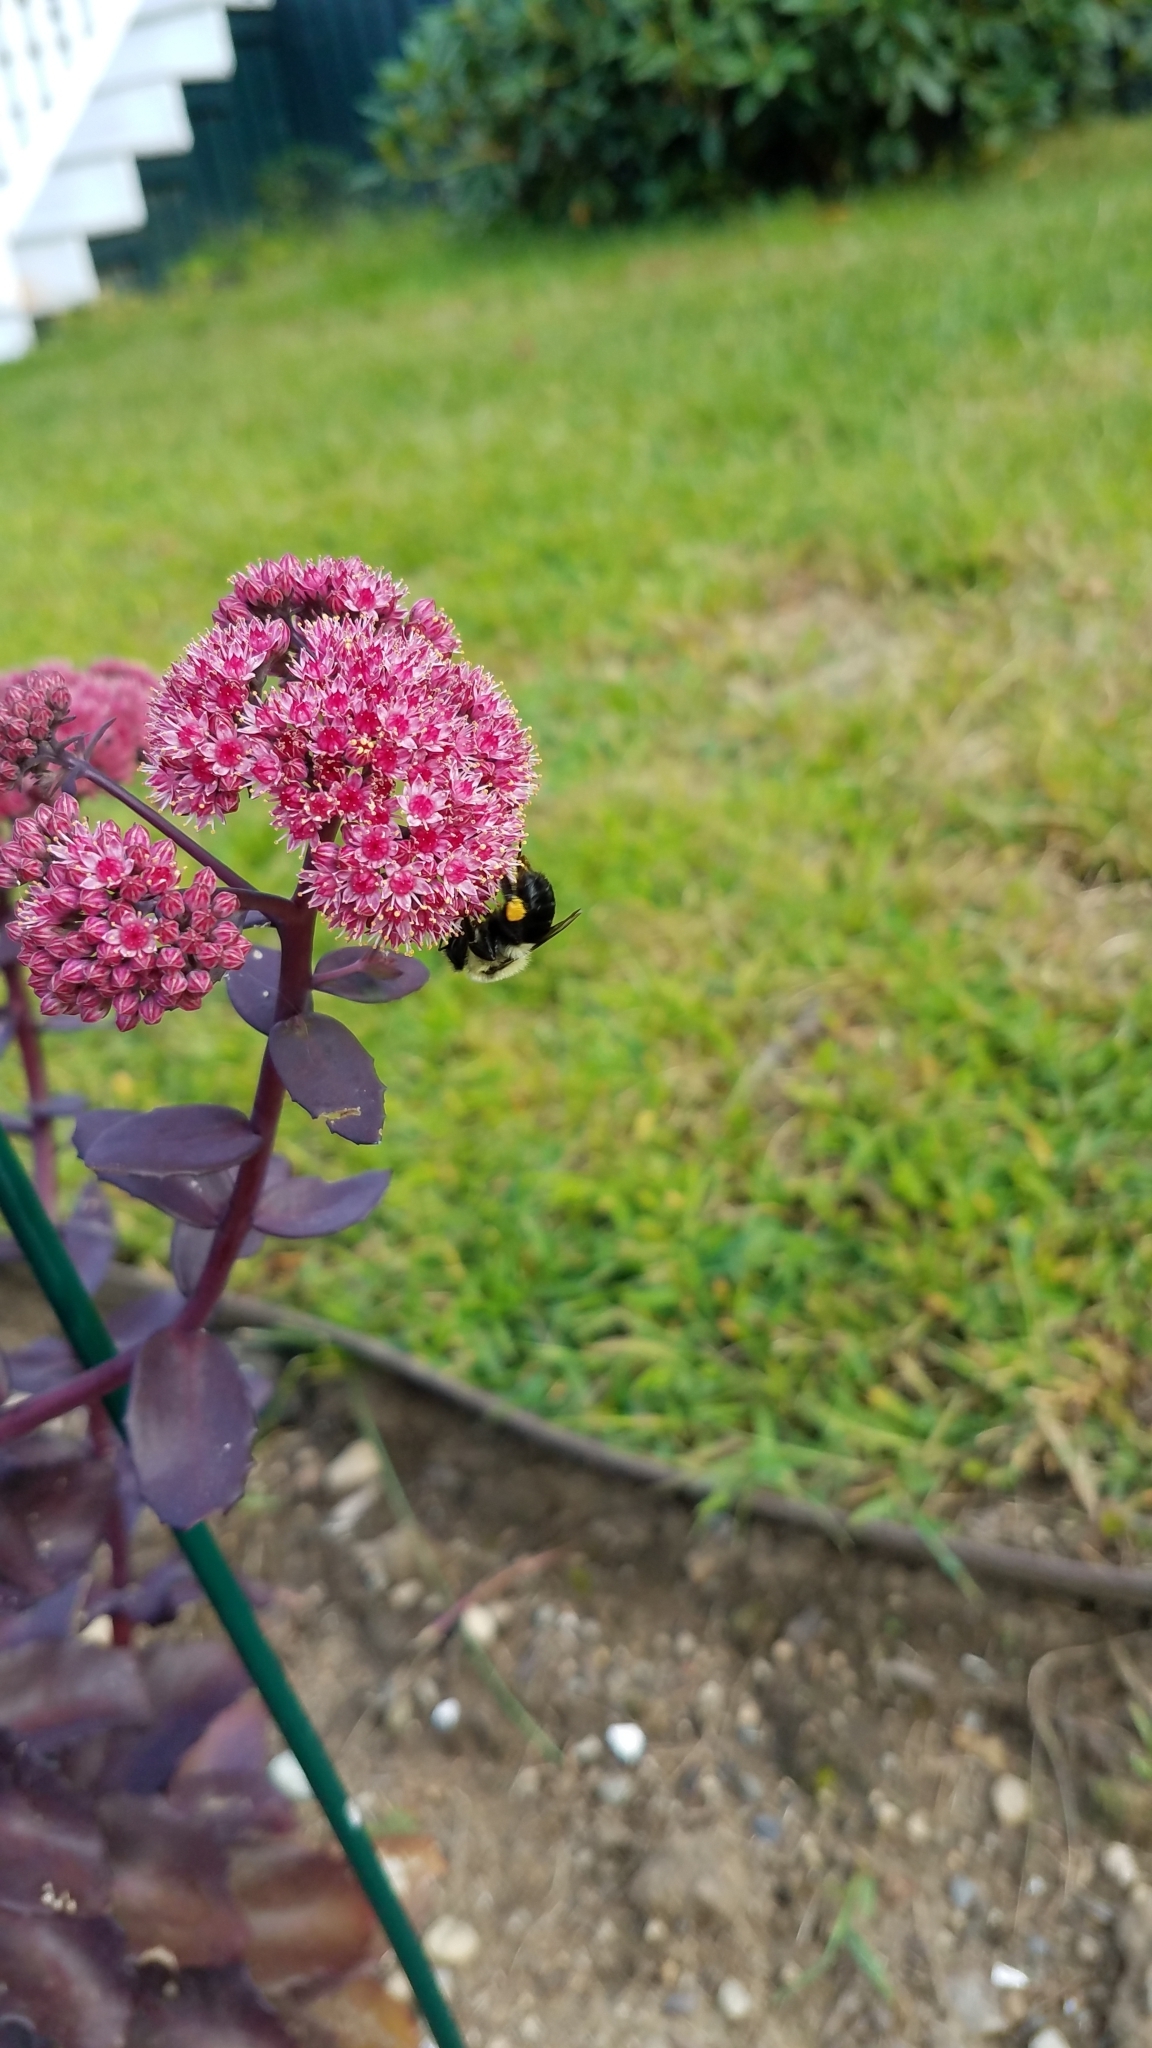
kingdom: Animalia
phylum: Arthropoda
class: Insecta
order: Hymenoptera
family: Apidae
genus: Bombus
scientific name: Bombus impatiens
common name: Common eastern bumble bee
